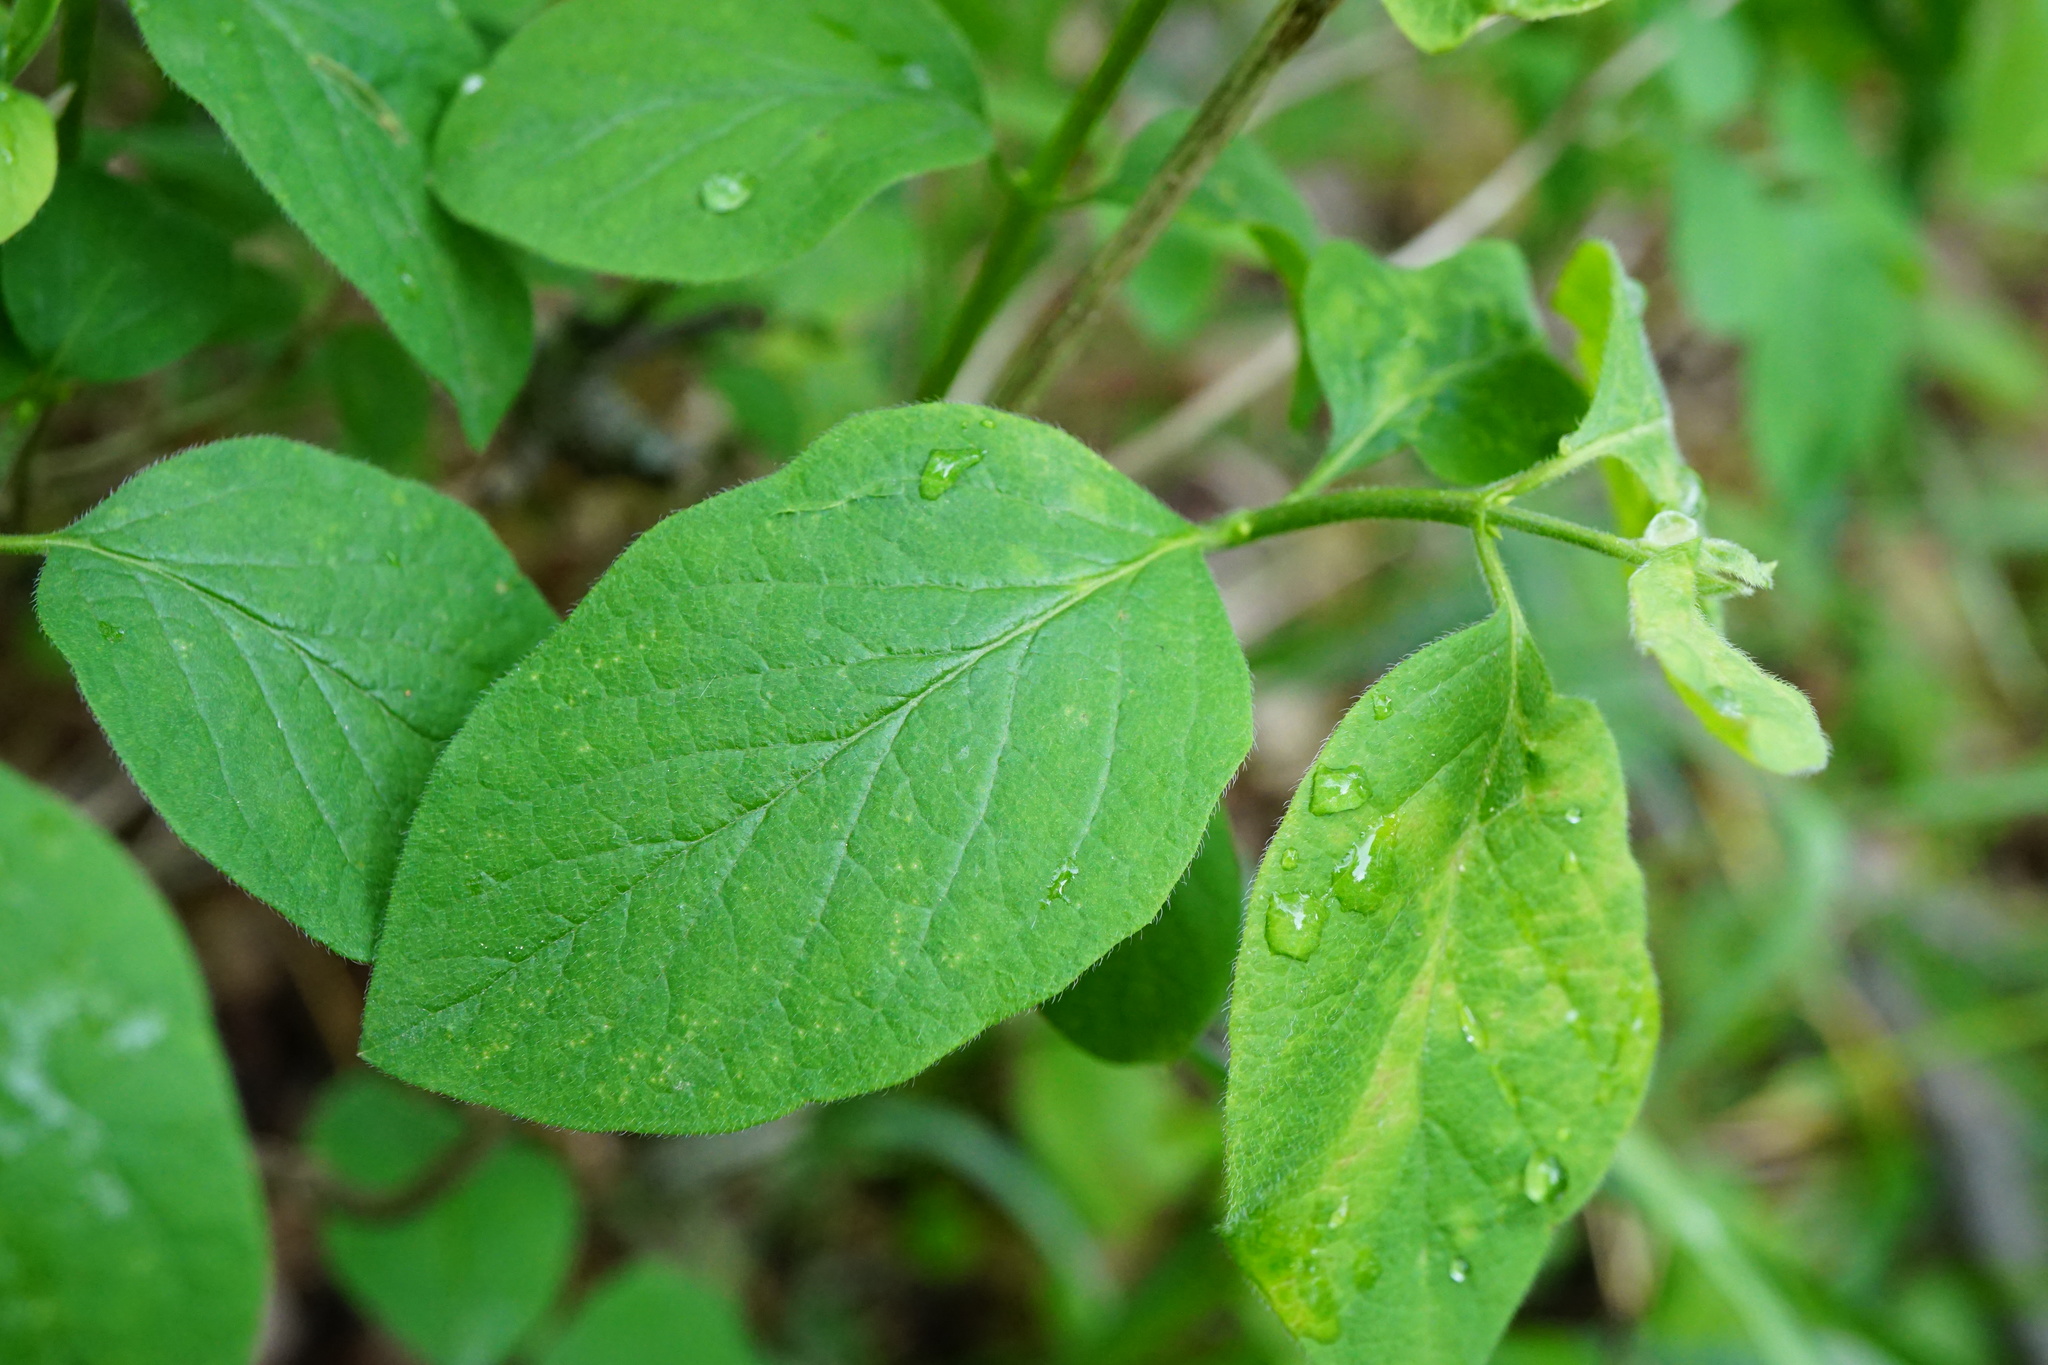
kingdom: Plantae
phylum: Tracheophyta
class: Magnoliopsida
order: Dipsacales
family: Caprifoliaceae
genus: Lonicera
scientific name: Lonicera xylosteum
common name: Fly honeysuckle
